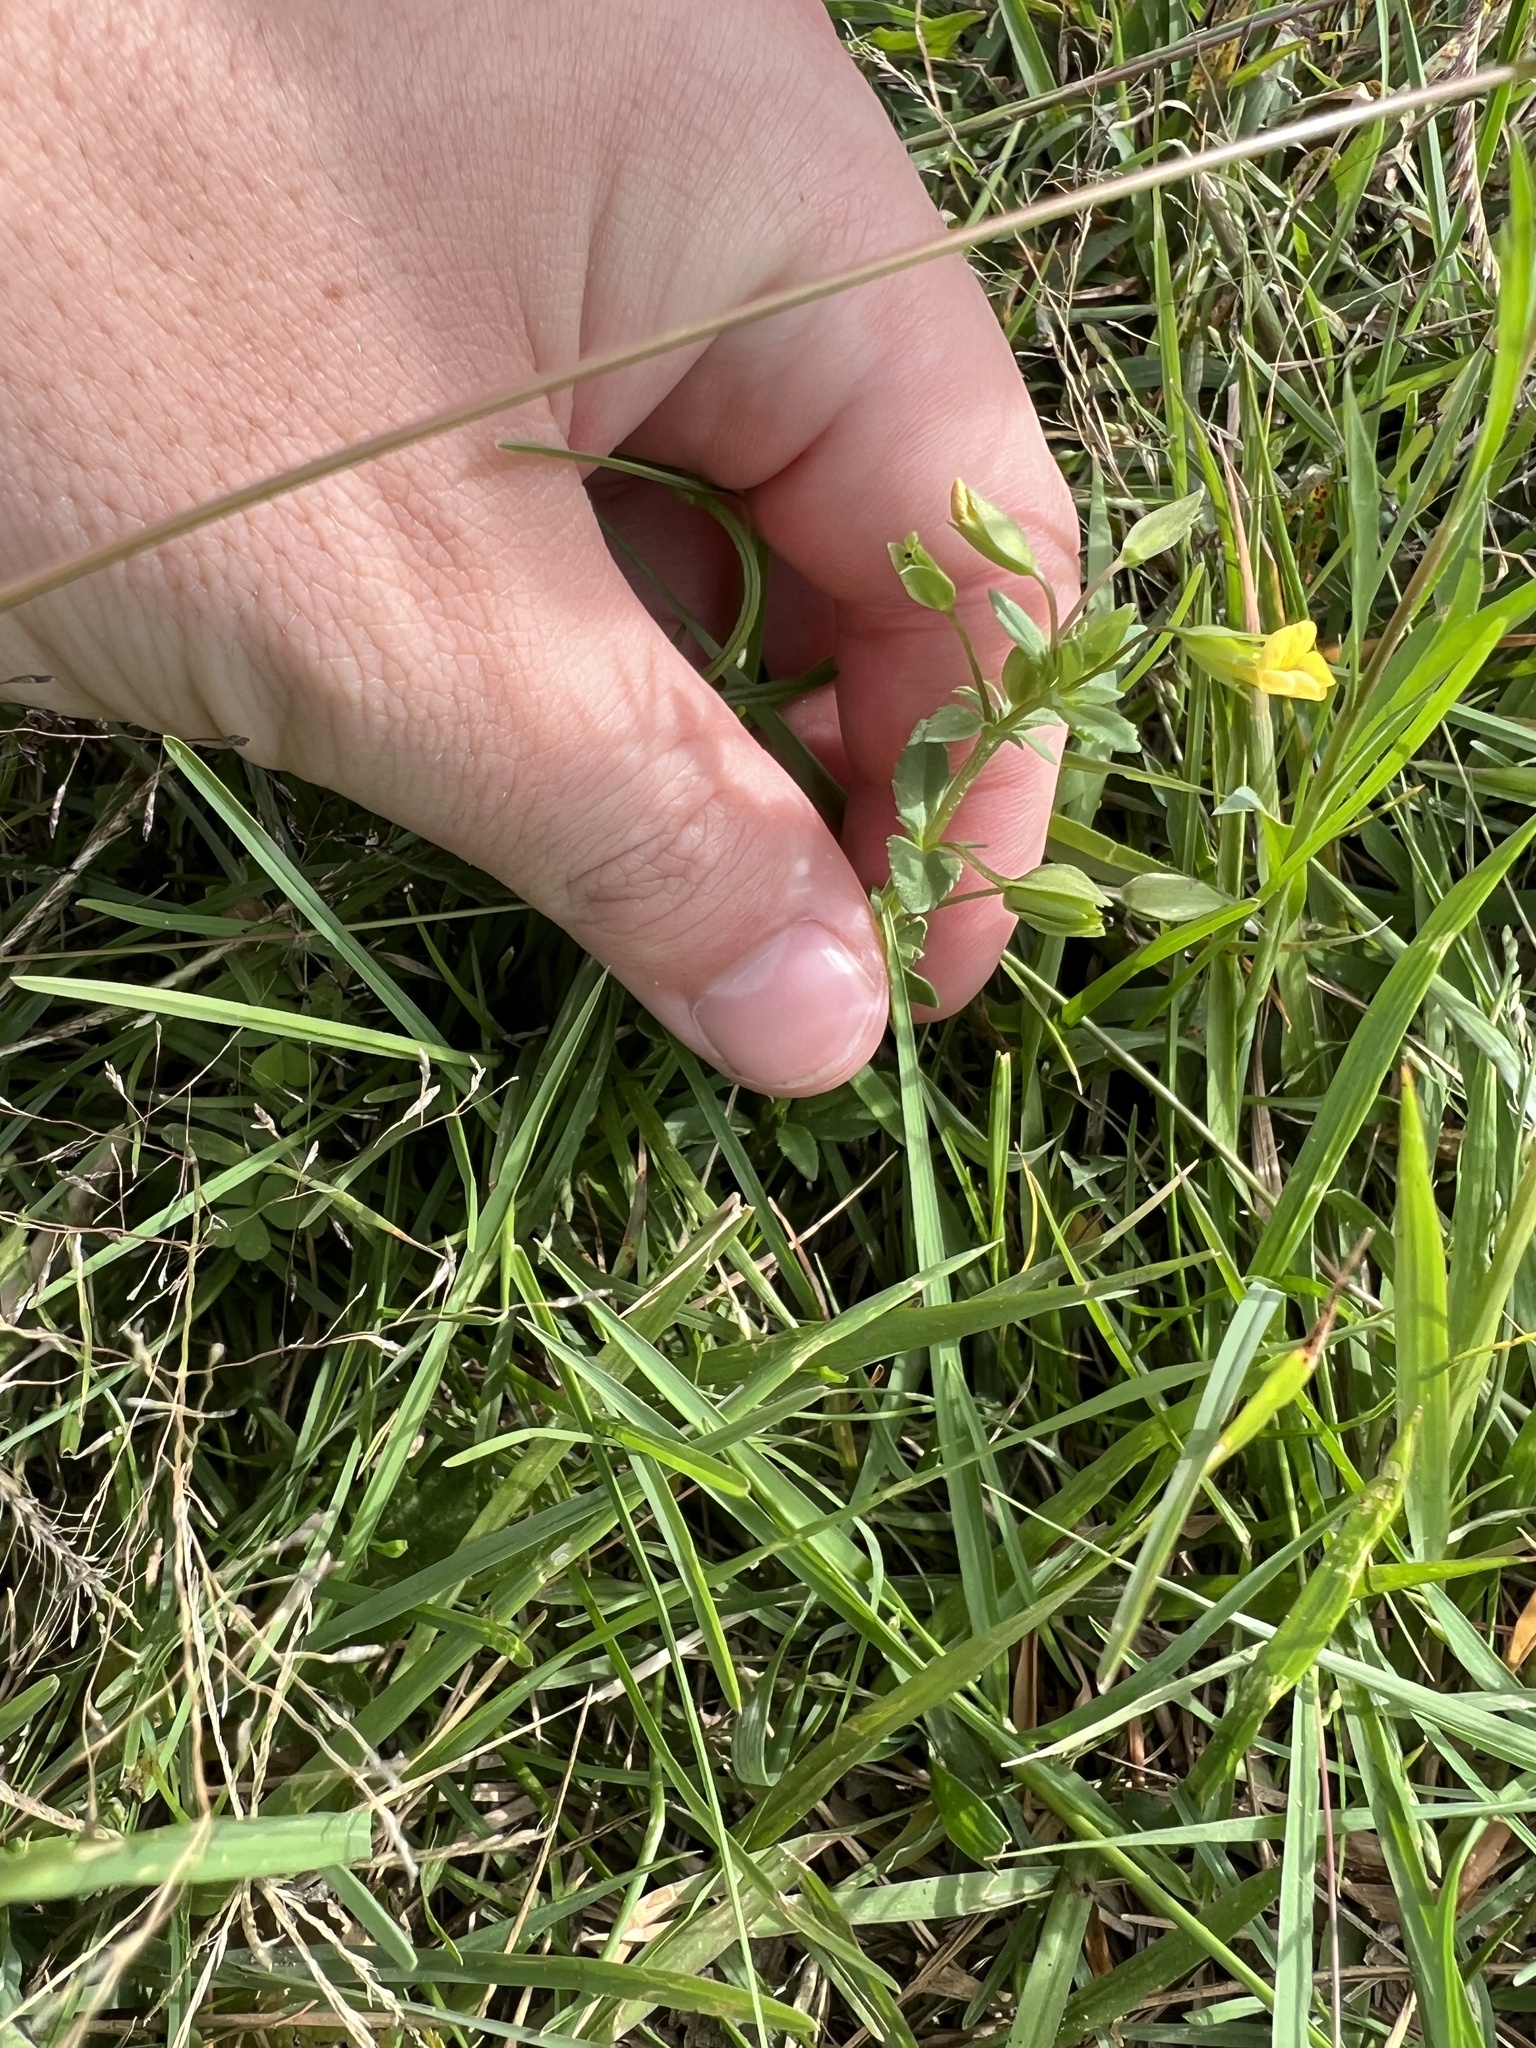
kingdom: Plantae
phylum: Tracheophyta
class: Magnoliopsida
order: Lamiales
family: Plantaginaceae
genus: Mecardonia
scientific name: Mecardonia procumbens
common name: Baby jump-up
